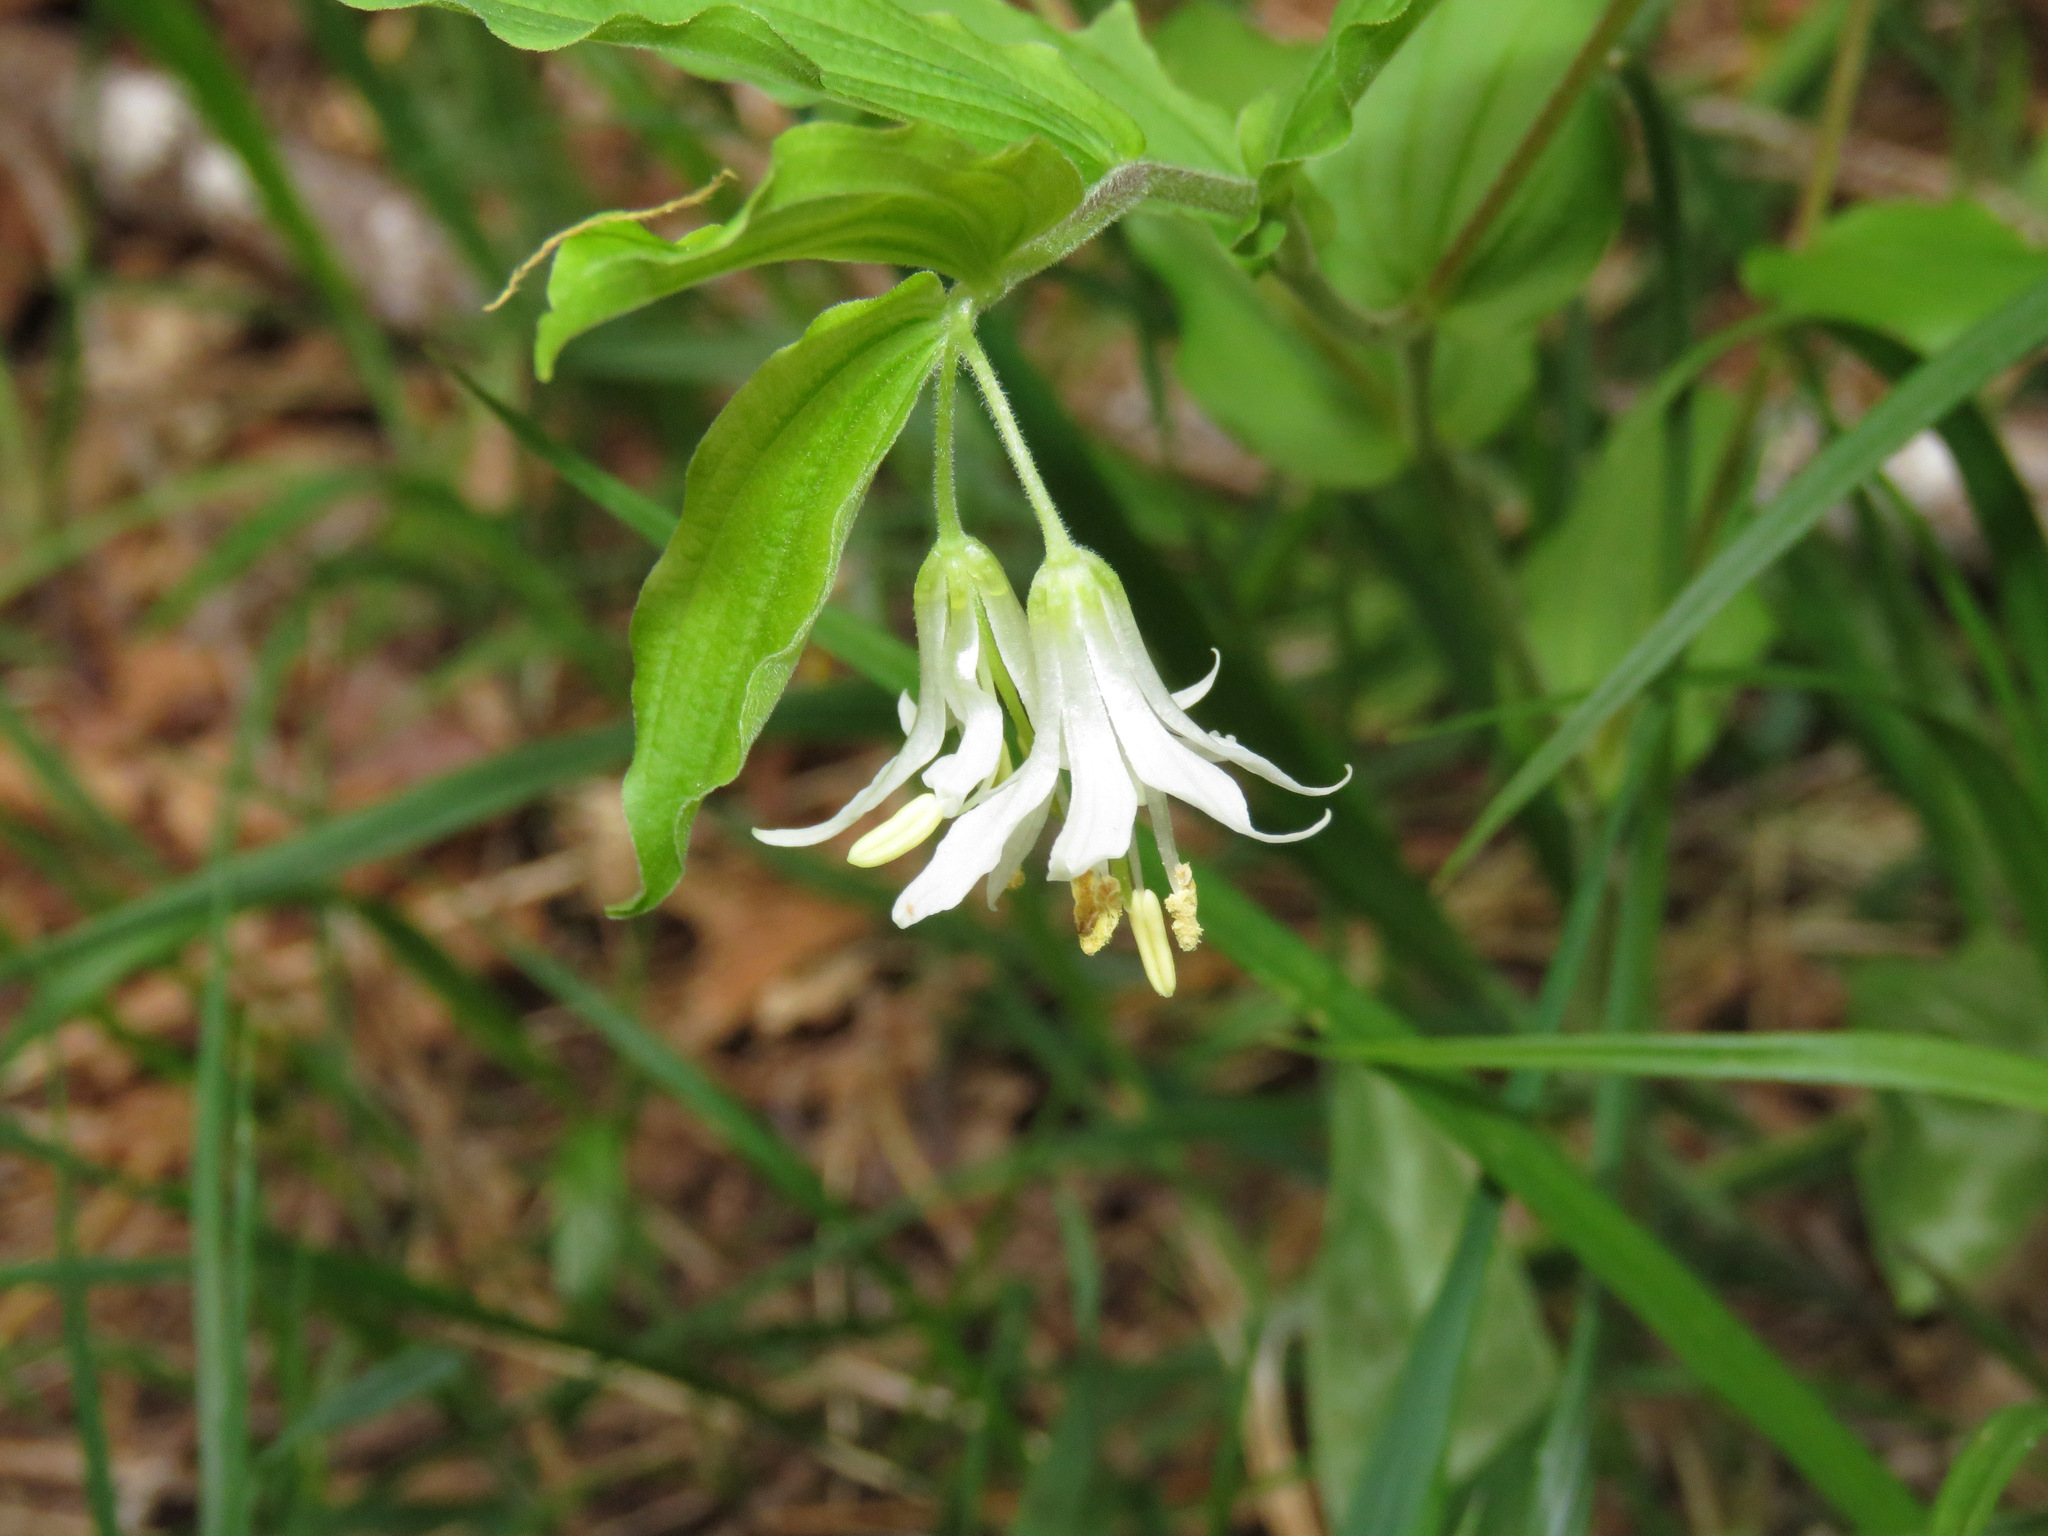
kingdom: Plantae
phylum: Tracheophyta
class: Liliopsida
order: Liliales
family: Liliaceae
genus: Prosartes
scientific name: Prosartes hookeri
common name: Fairy-bells
